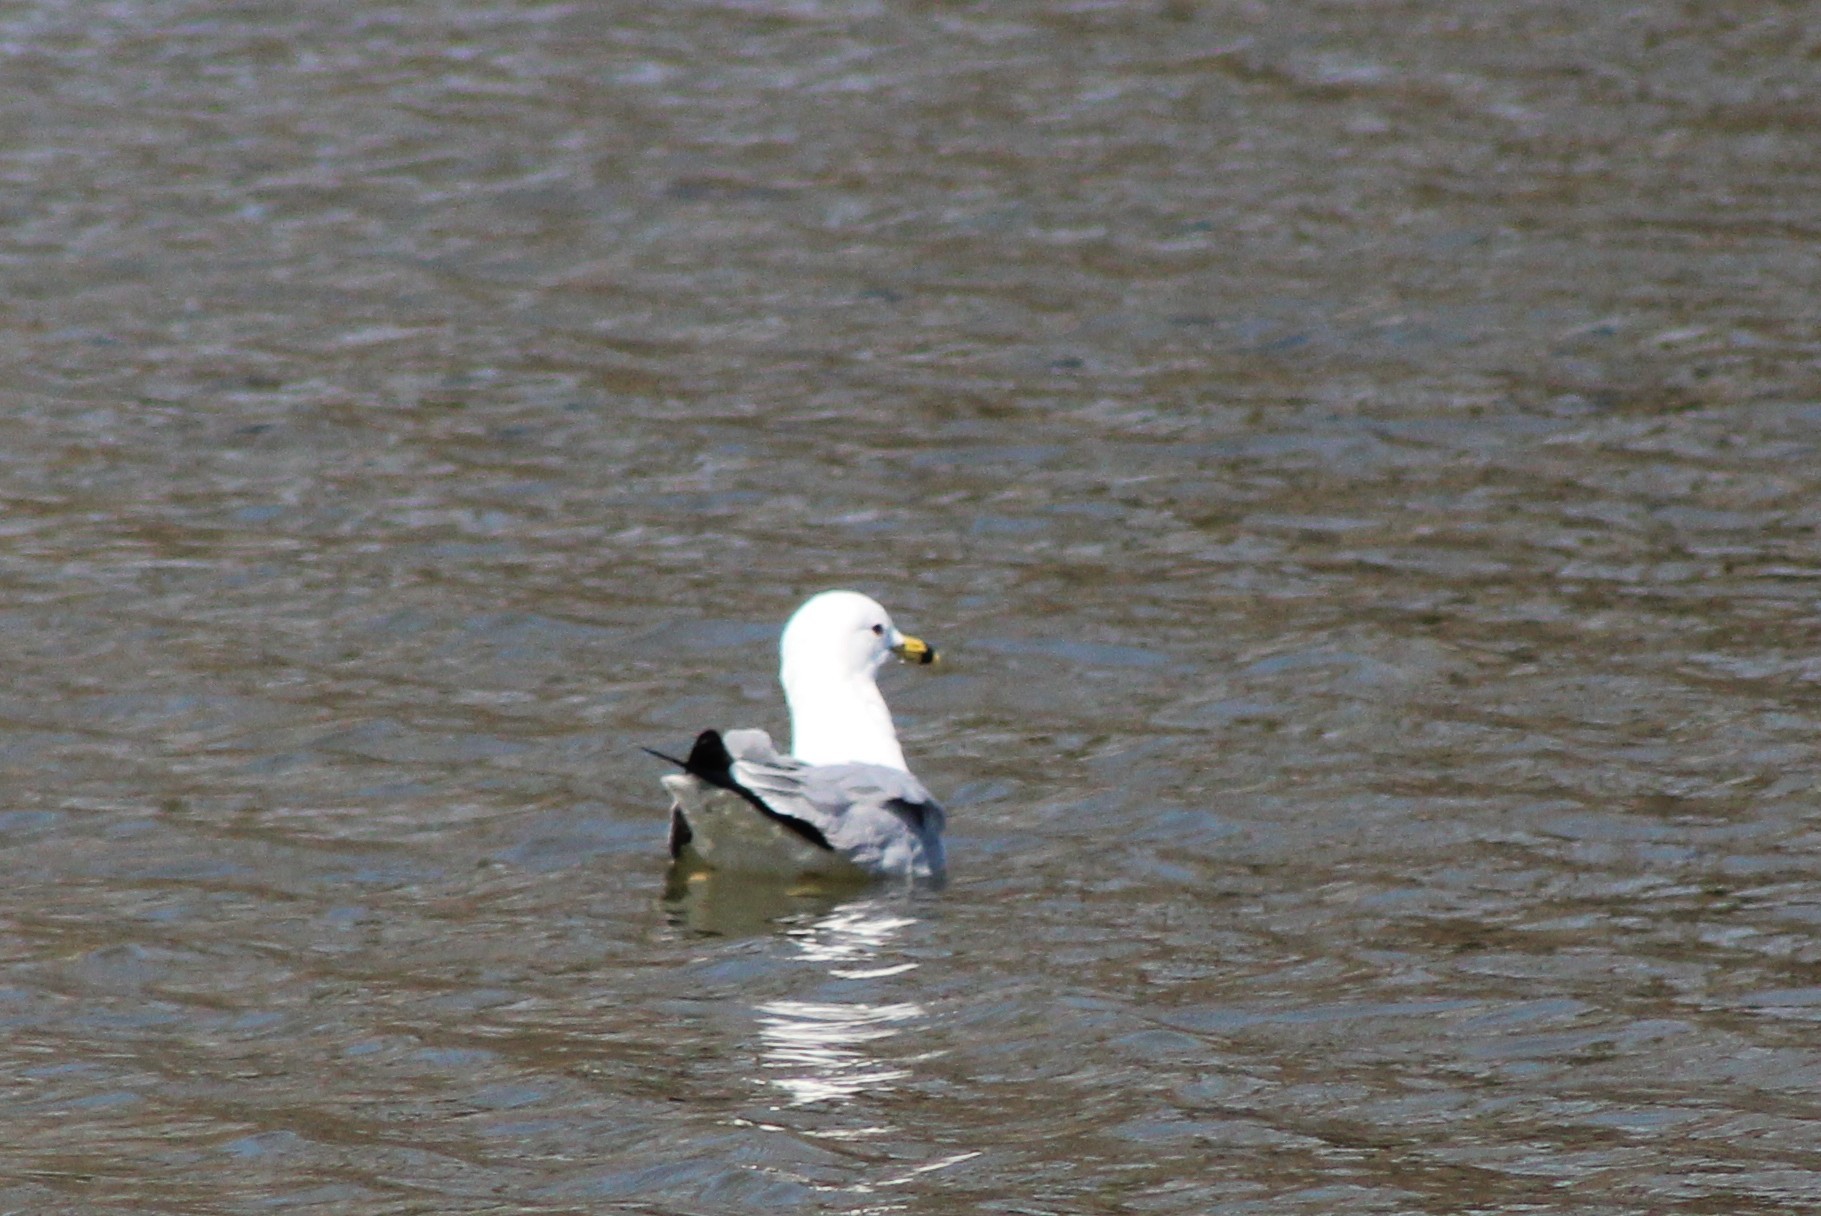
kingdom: Animalia
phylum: Chordata
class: Aves
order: Charadriiformes
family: Laridae
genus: Larus
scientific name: Larus delawarensis
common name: Ring-billed gull
